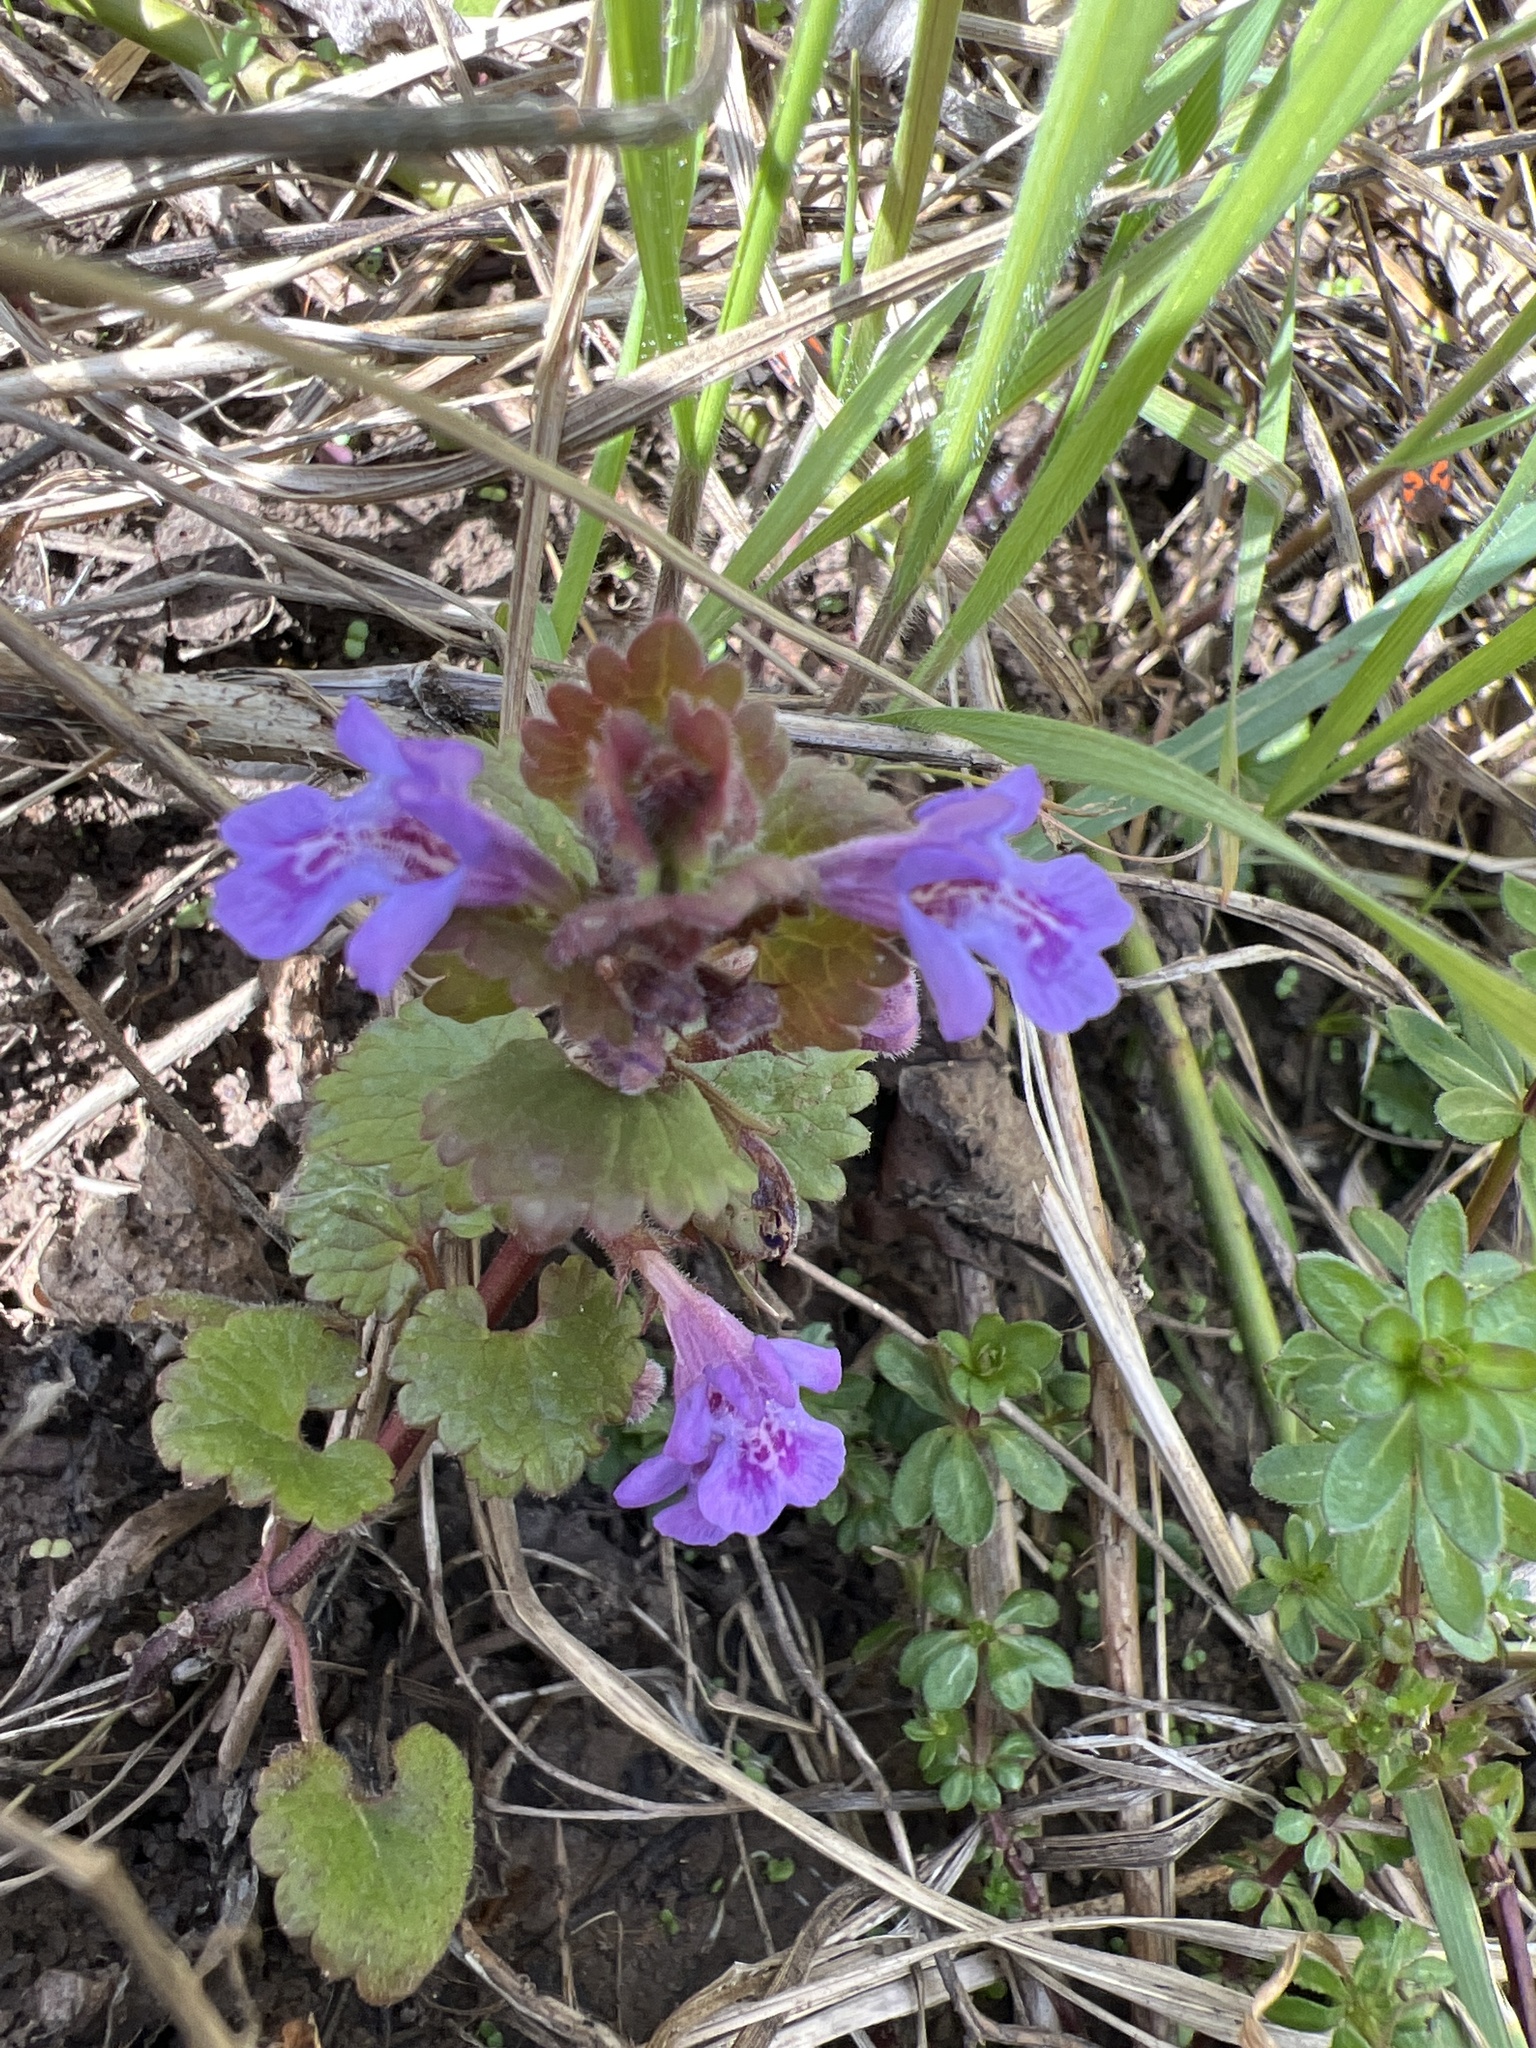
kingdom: Plantae
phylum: Tracheophyta
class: Magnoliopsida
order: Lamiales
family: Lamiaceae
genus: Glechoma
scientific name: Glechoma hederacea
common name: Ground ivy
